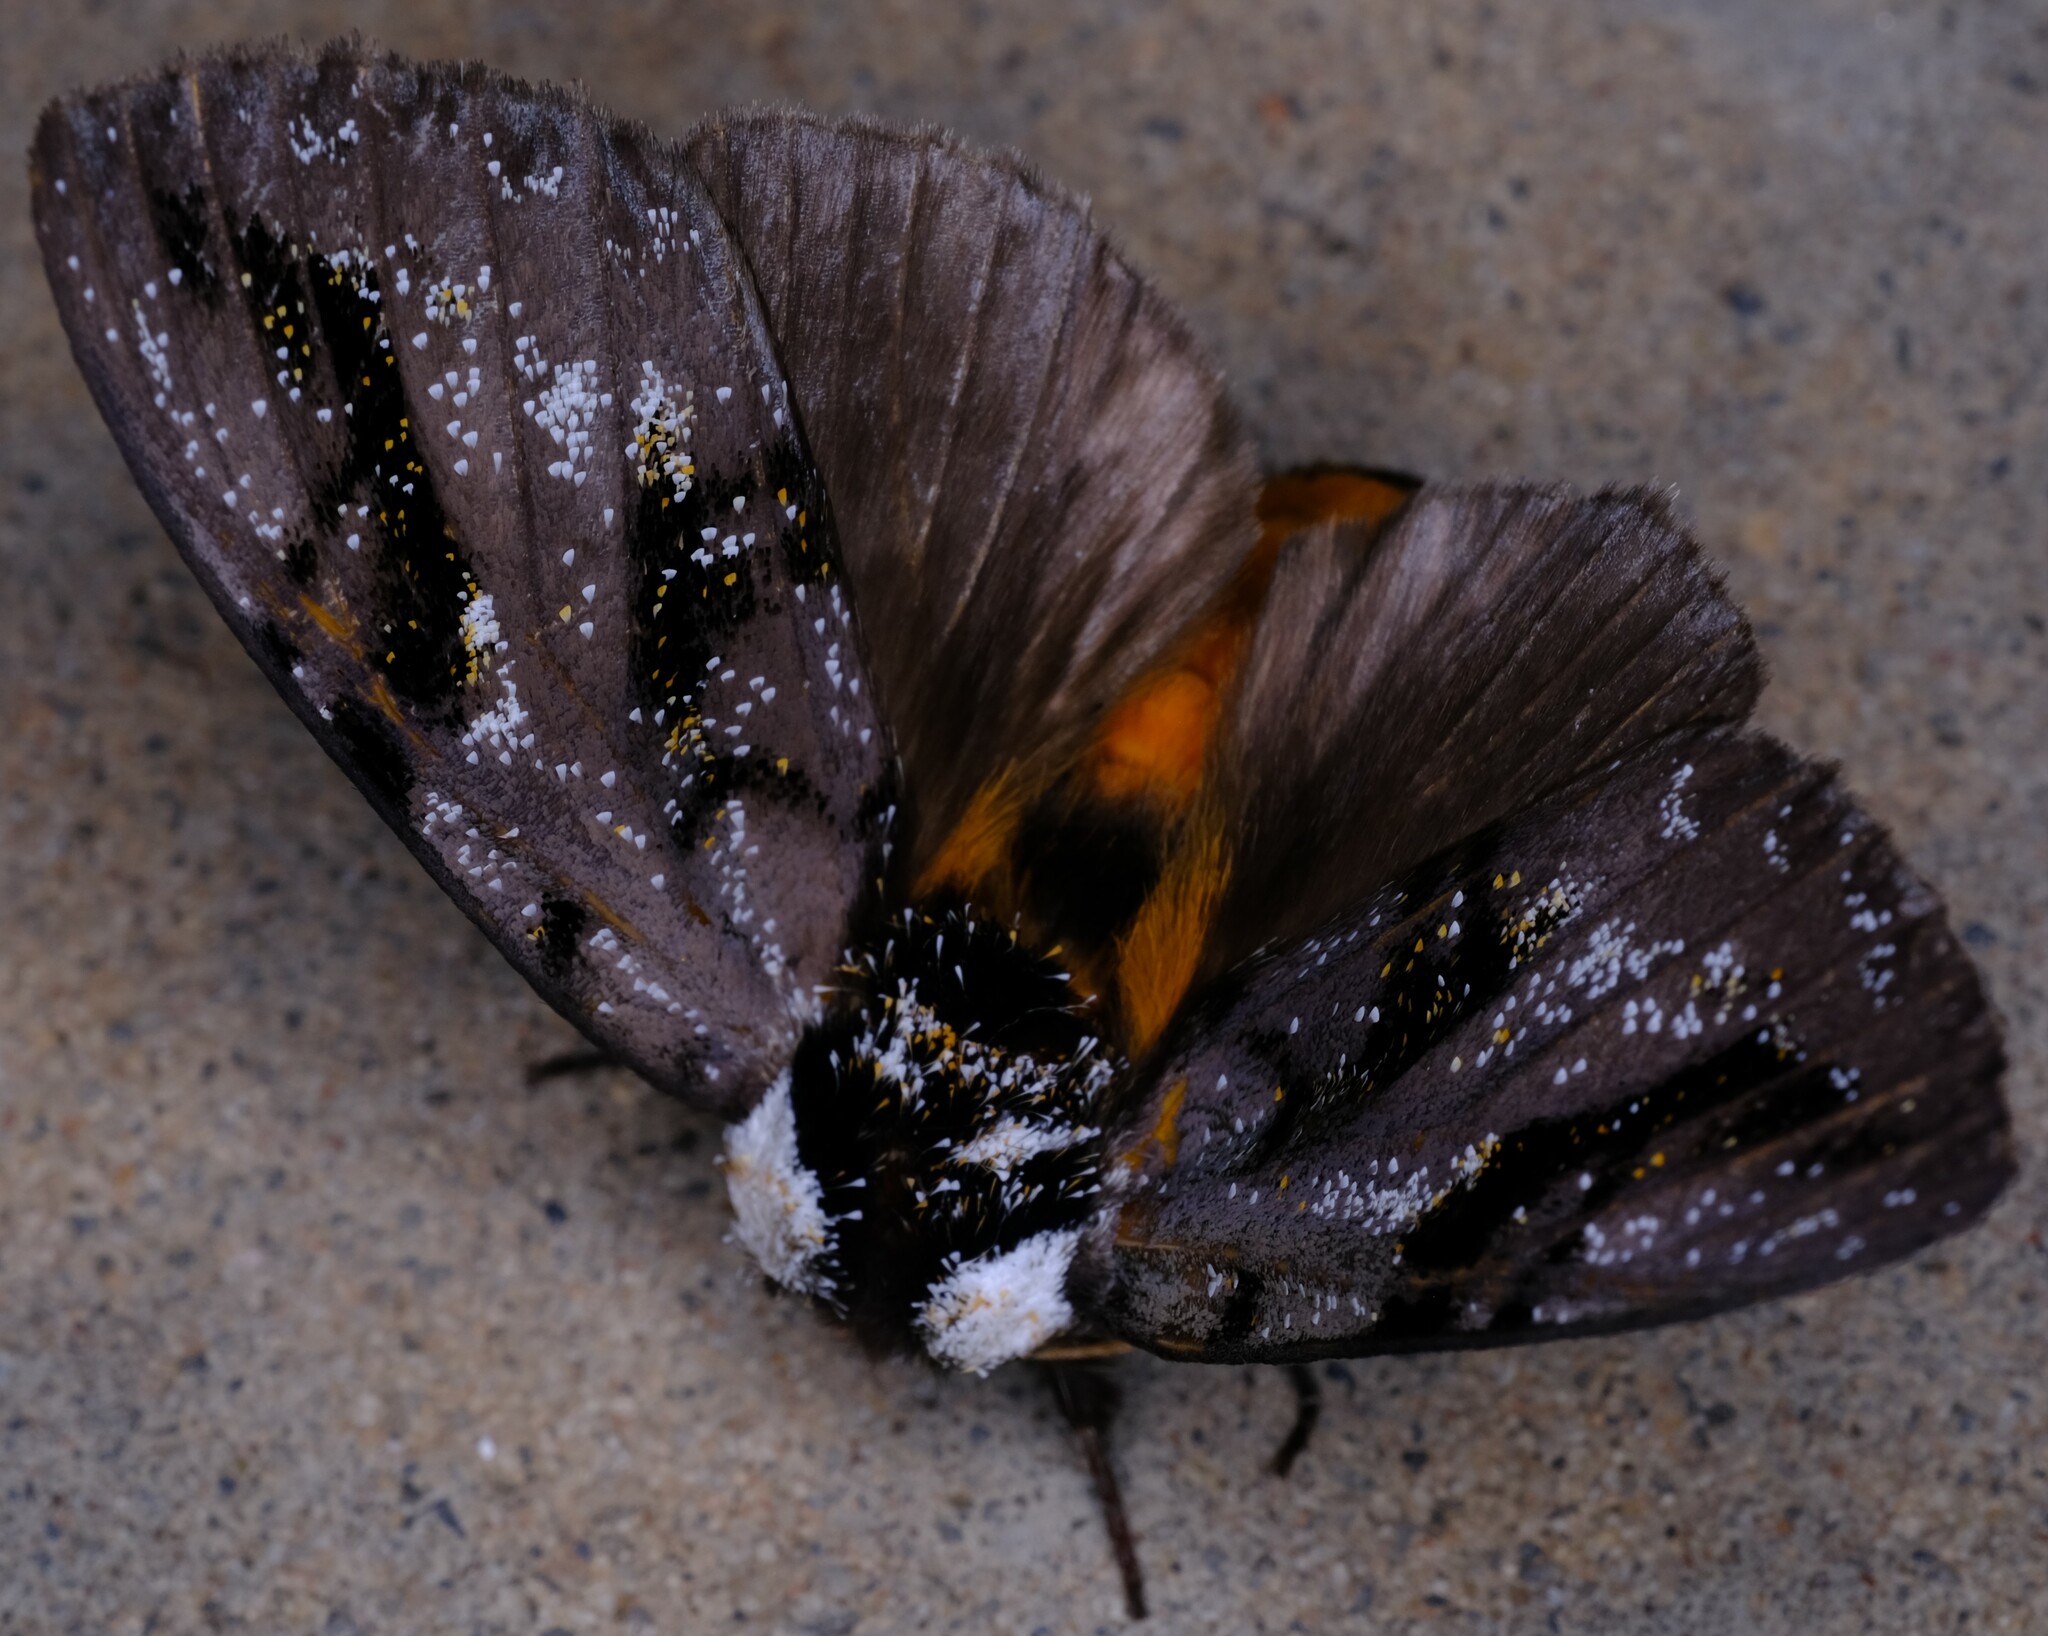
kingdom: Animalia
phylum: Arthropoda
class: Insecta
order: Lepidoptera
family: Notodontidae
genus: Psalidostetha
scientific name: Psalidostetha banksiae
